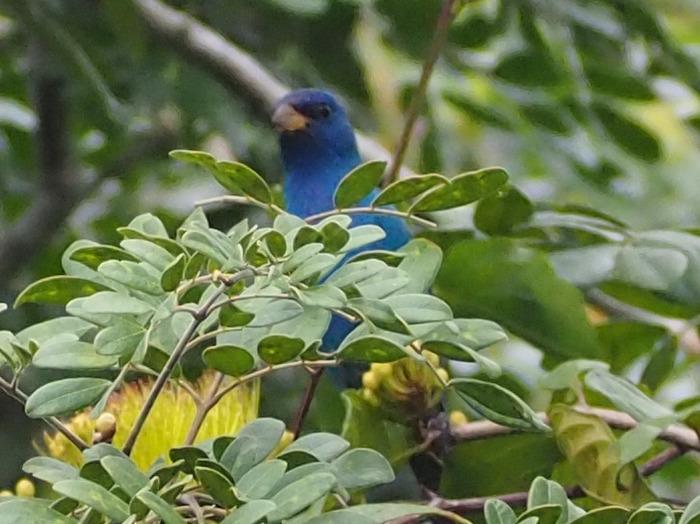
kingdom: Animalia
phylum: Chordata
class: Aves
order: Passeriformes
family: Cardinalidae
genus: Passerina
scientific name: Passerina cyanea
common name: Indigo bunting
